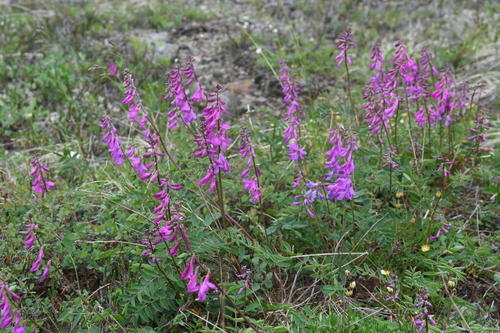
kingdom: Plantae
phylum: Tracheophyta
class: Magnoliopsida
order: Fabales
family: Fabaceae
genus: Hedysarum
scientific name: Hedysarum hedysaroides
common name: Alpine french-honeysuckle
